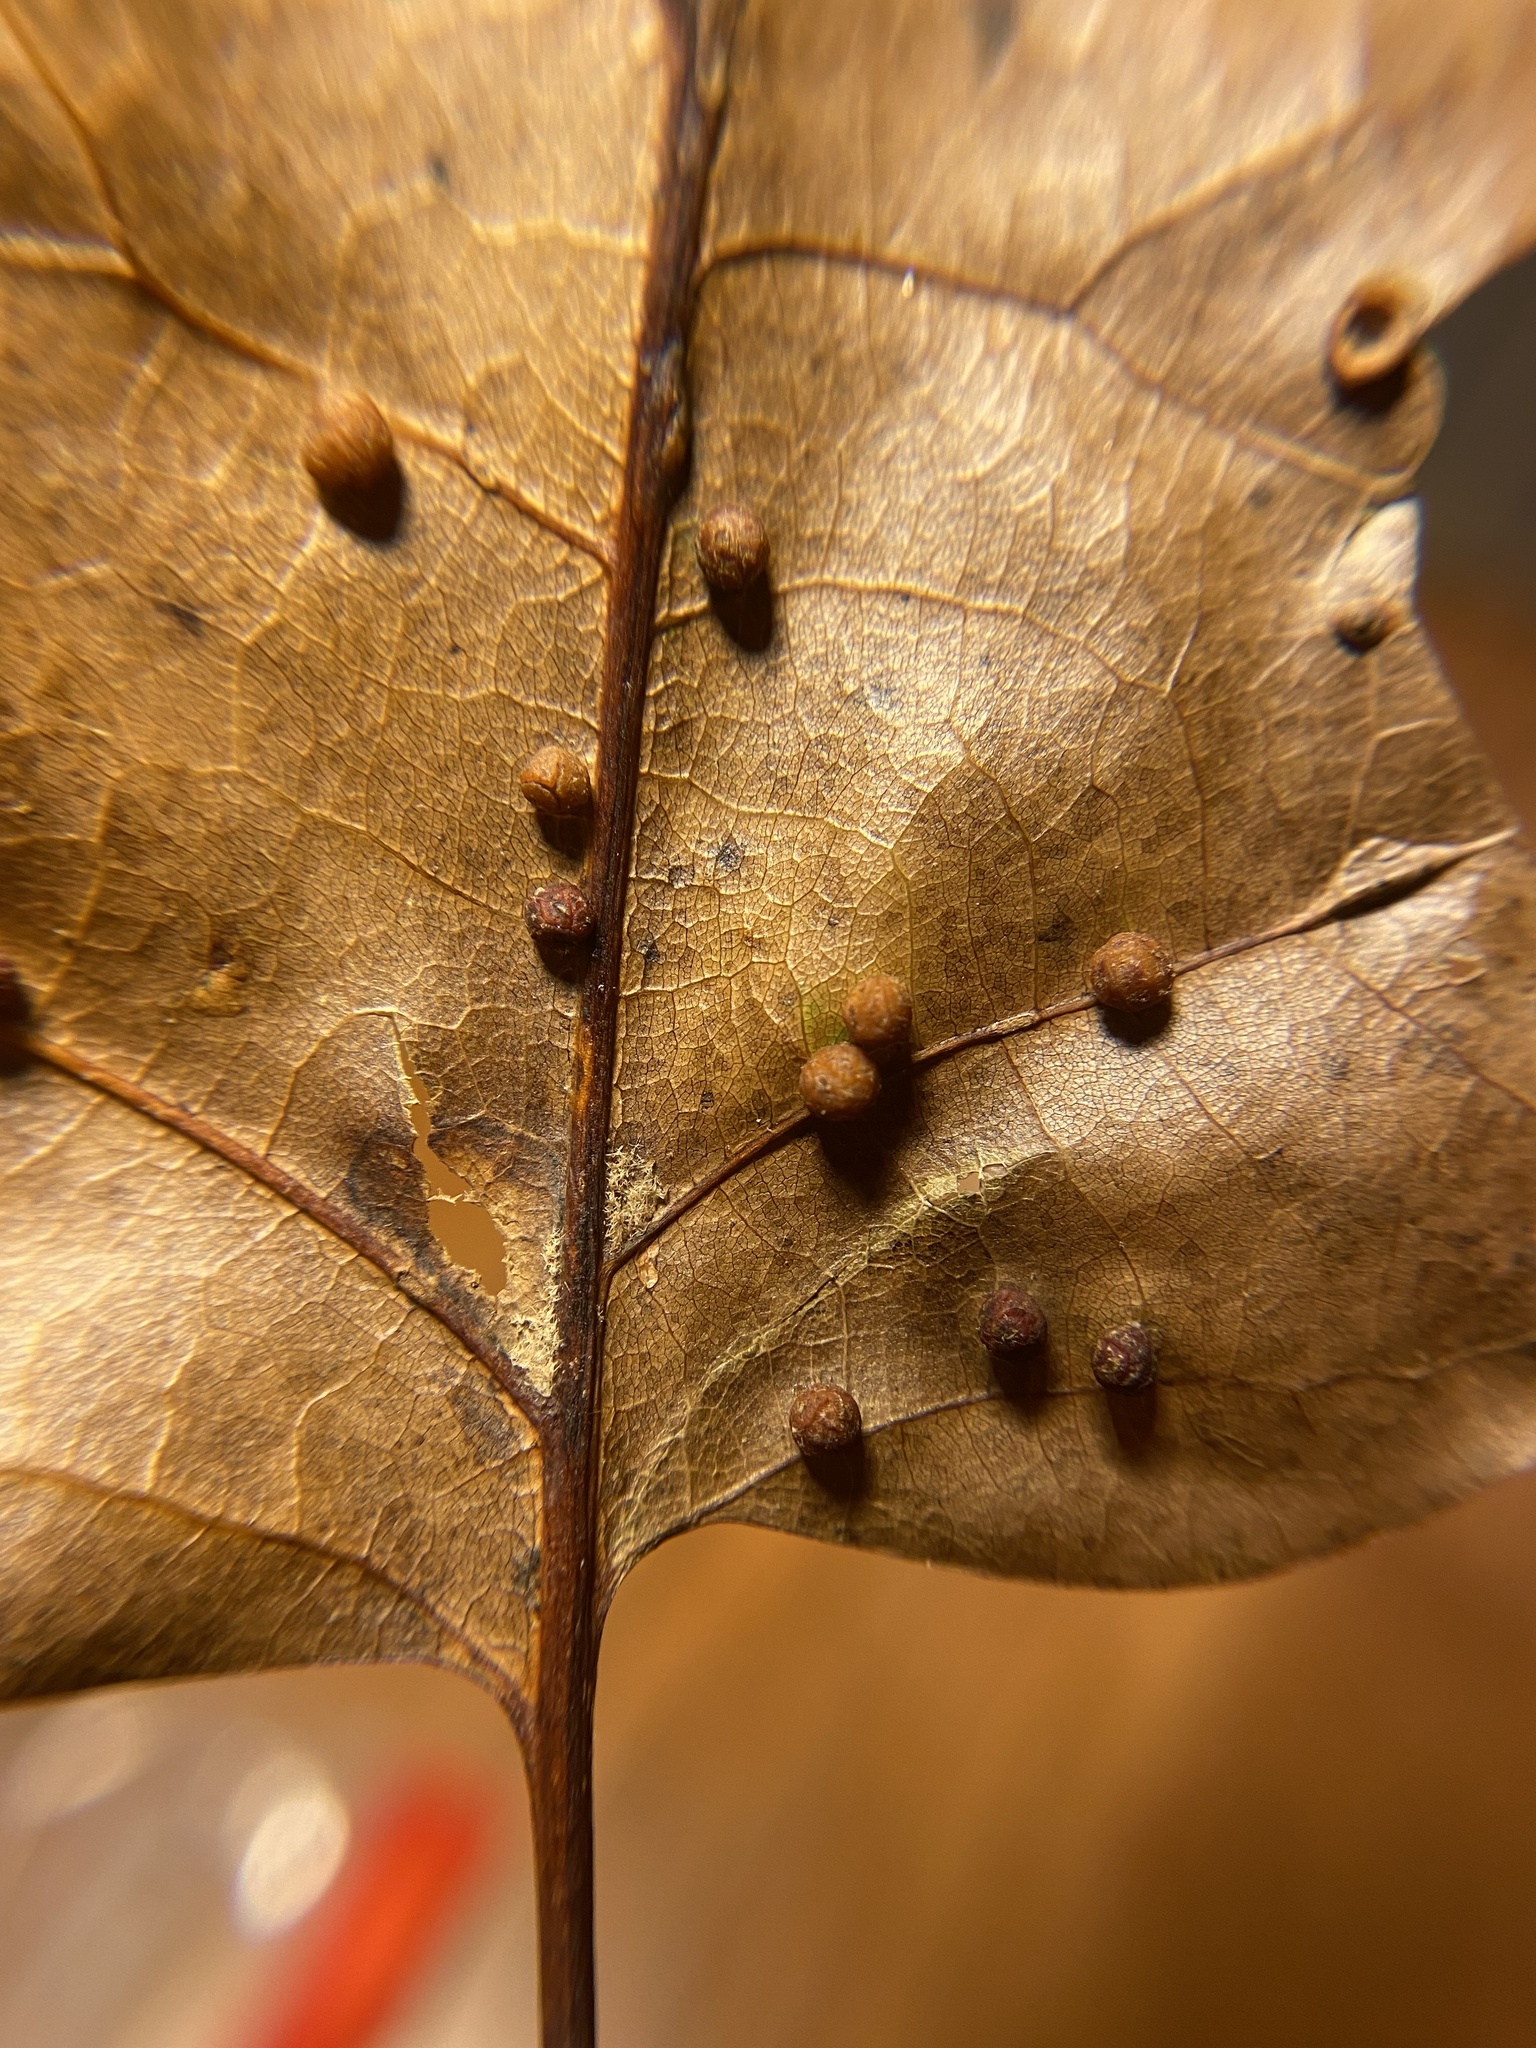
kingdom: Animalia
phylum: Arthropoda
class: Insecta
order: Diptera
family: Cecidomyiidae
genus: Polystepha
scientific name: Polystepha globosa
